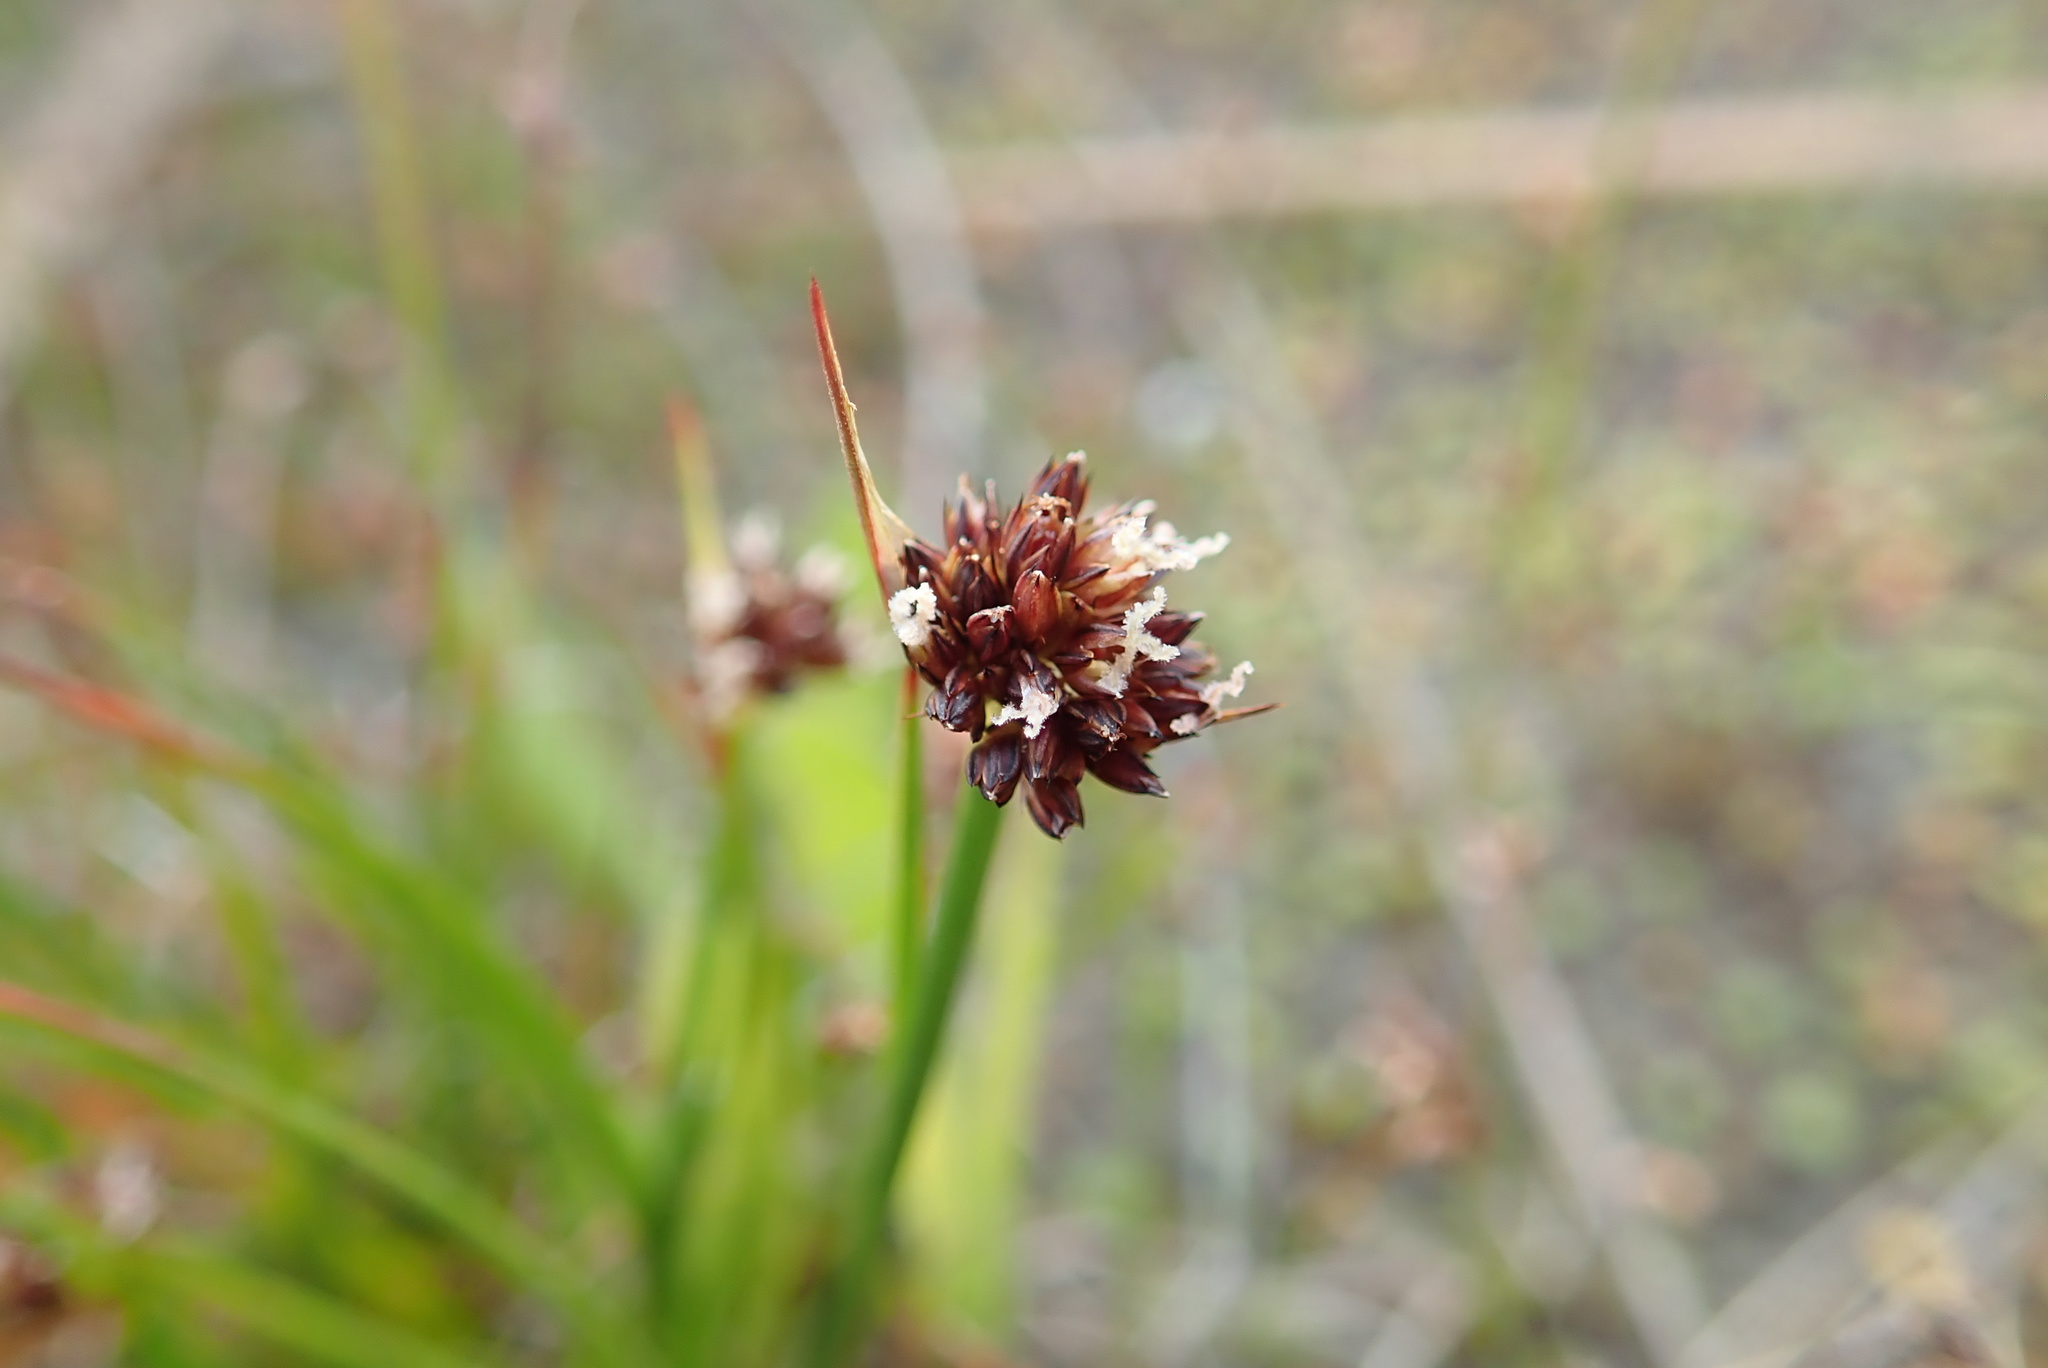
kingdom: Plantae
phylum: Tracheophyta
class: Liliopsida
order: Poales
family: Juncaceae
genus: Juncus
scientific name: Juncus caespiticius
